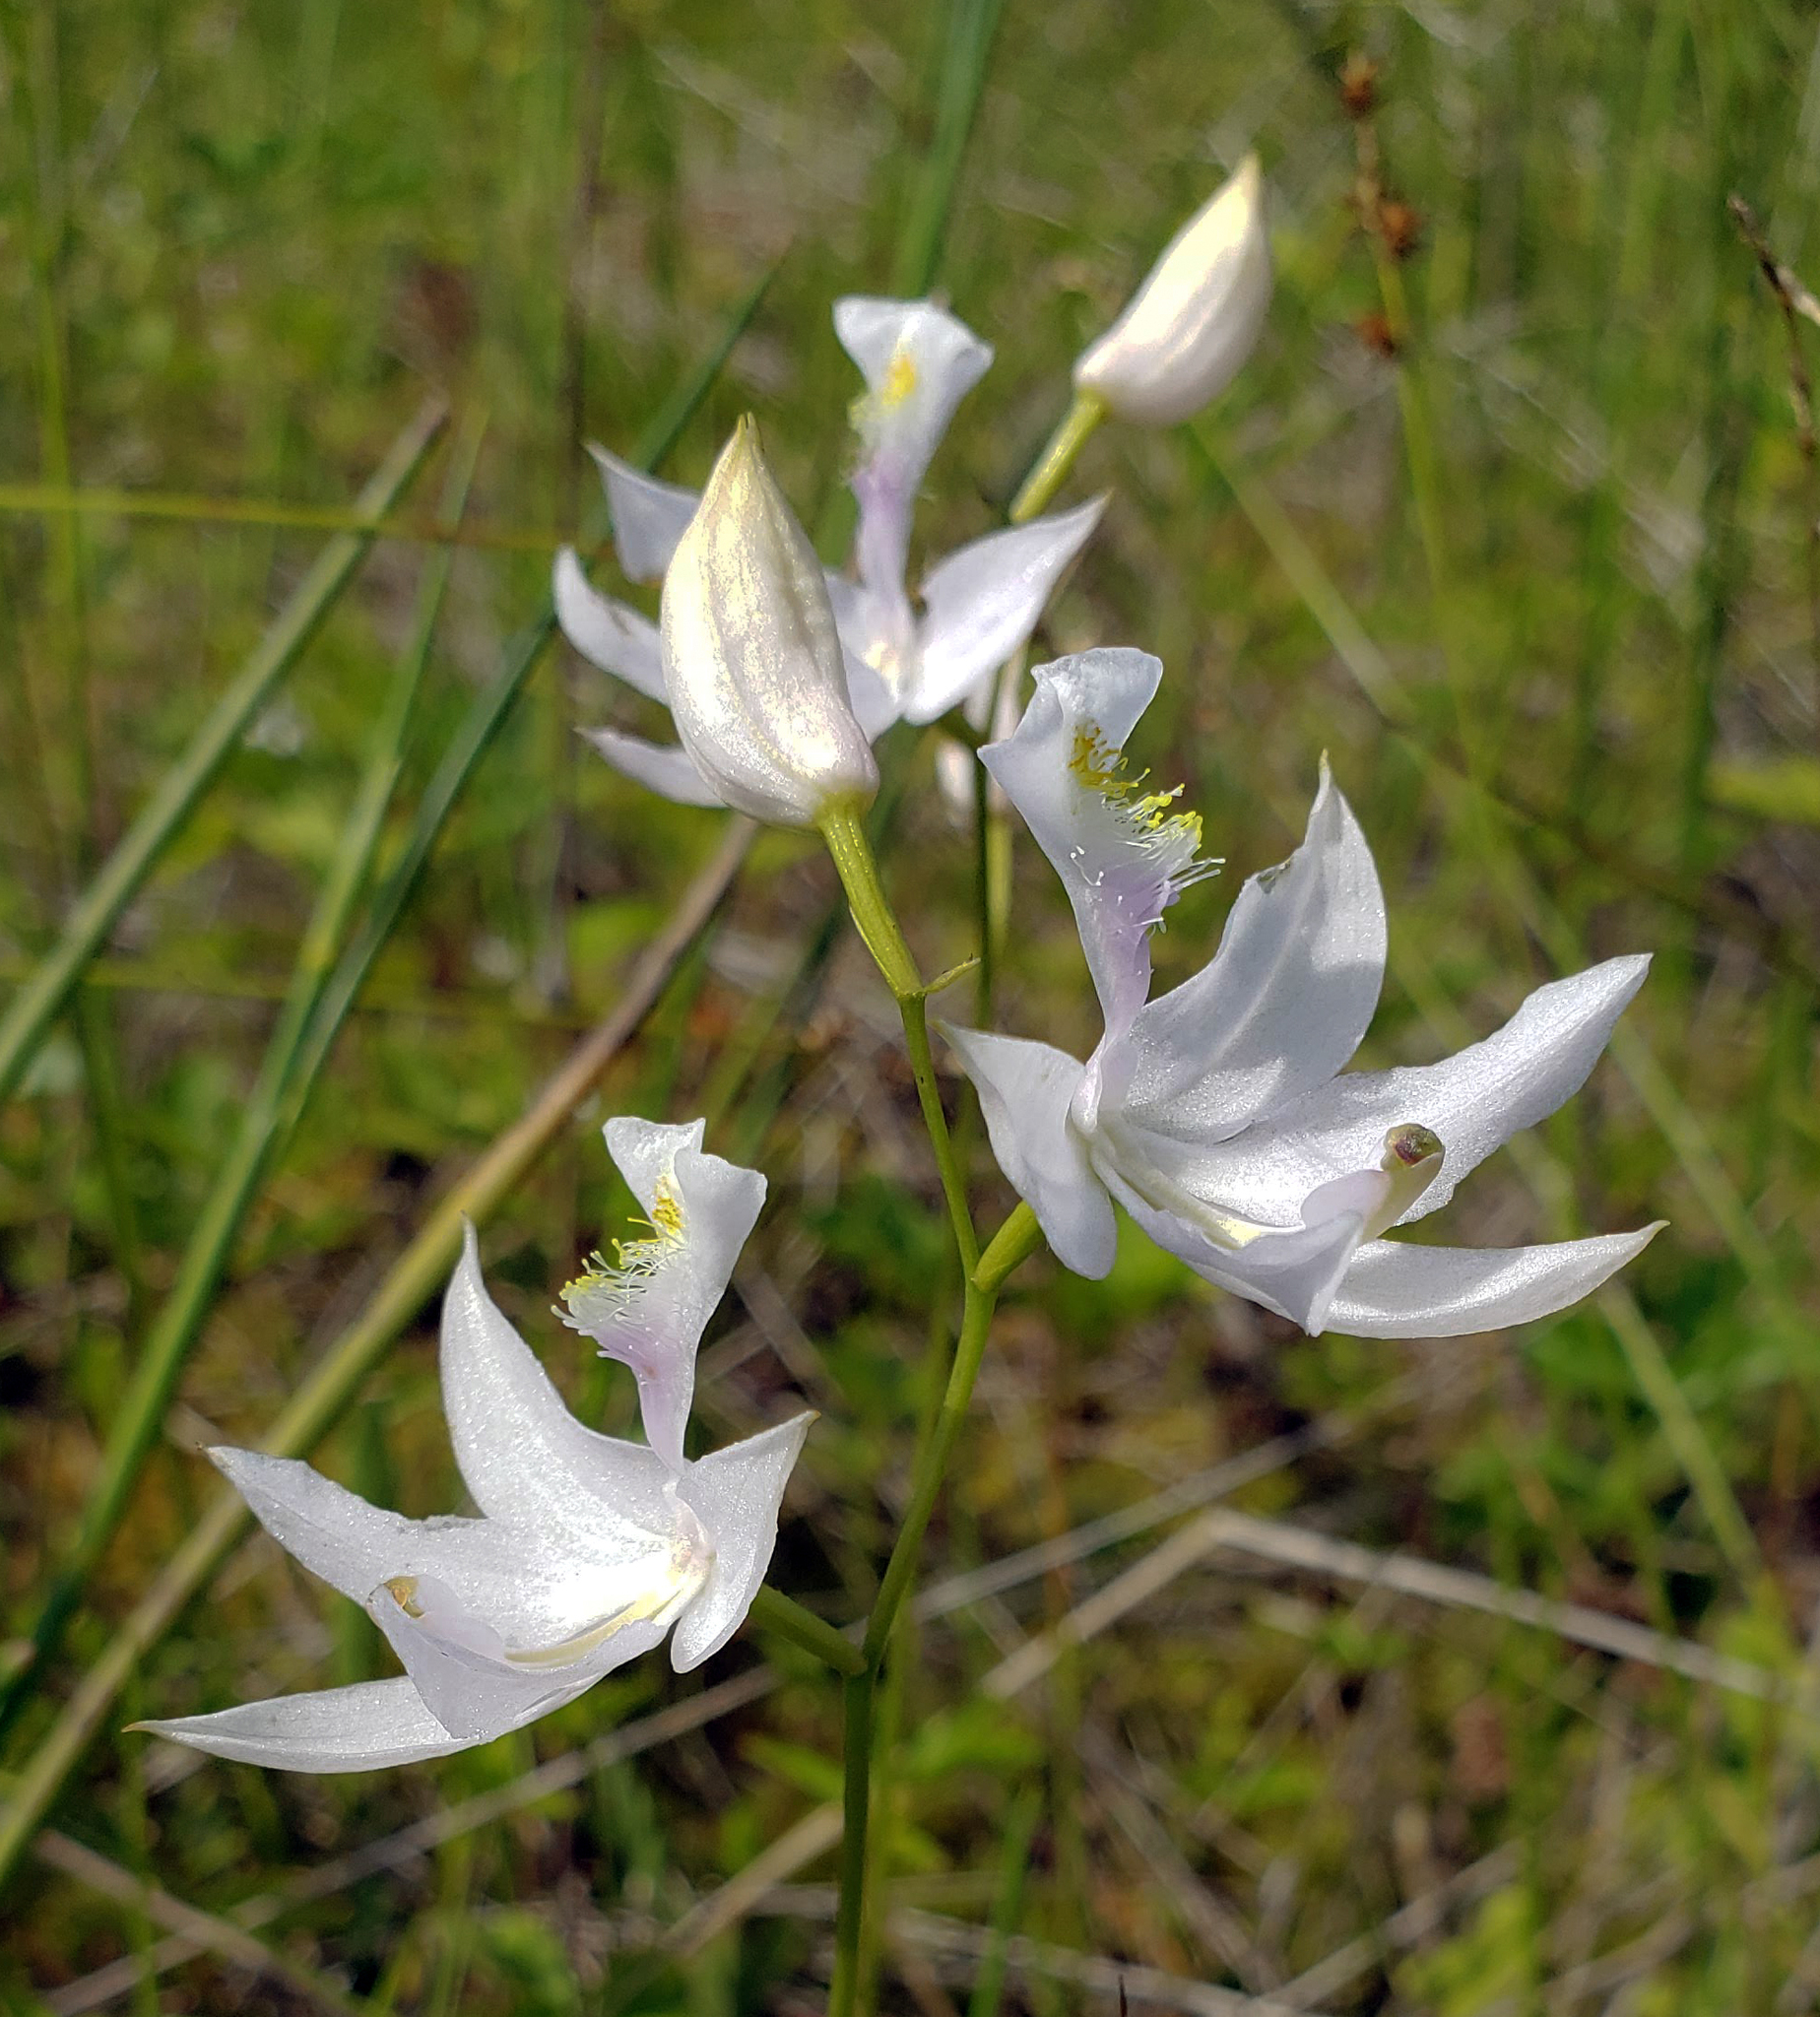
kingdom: Plantae
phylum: Tracheophyta
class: Liliopsida
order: Asparagales
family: Orchidaceae
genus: Calopogon
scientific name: Calopogon tuberosus
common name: Grass-pink
